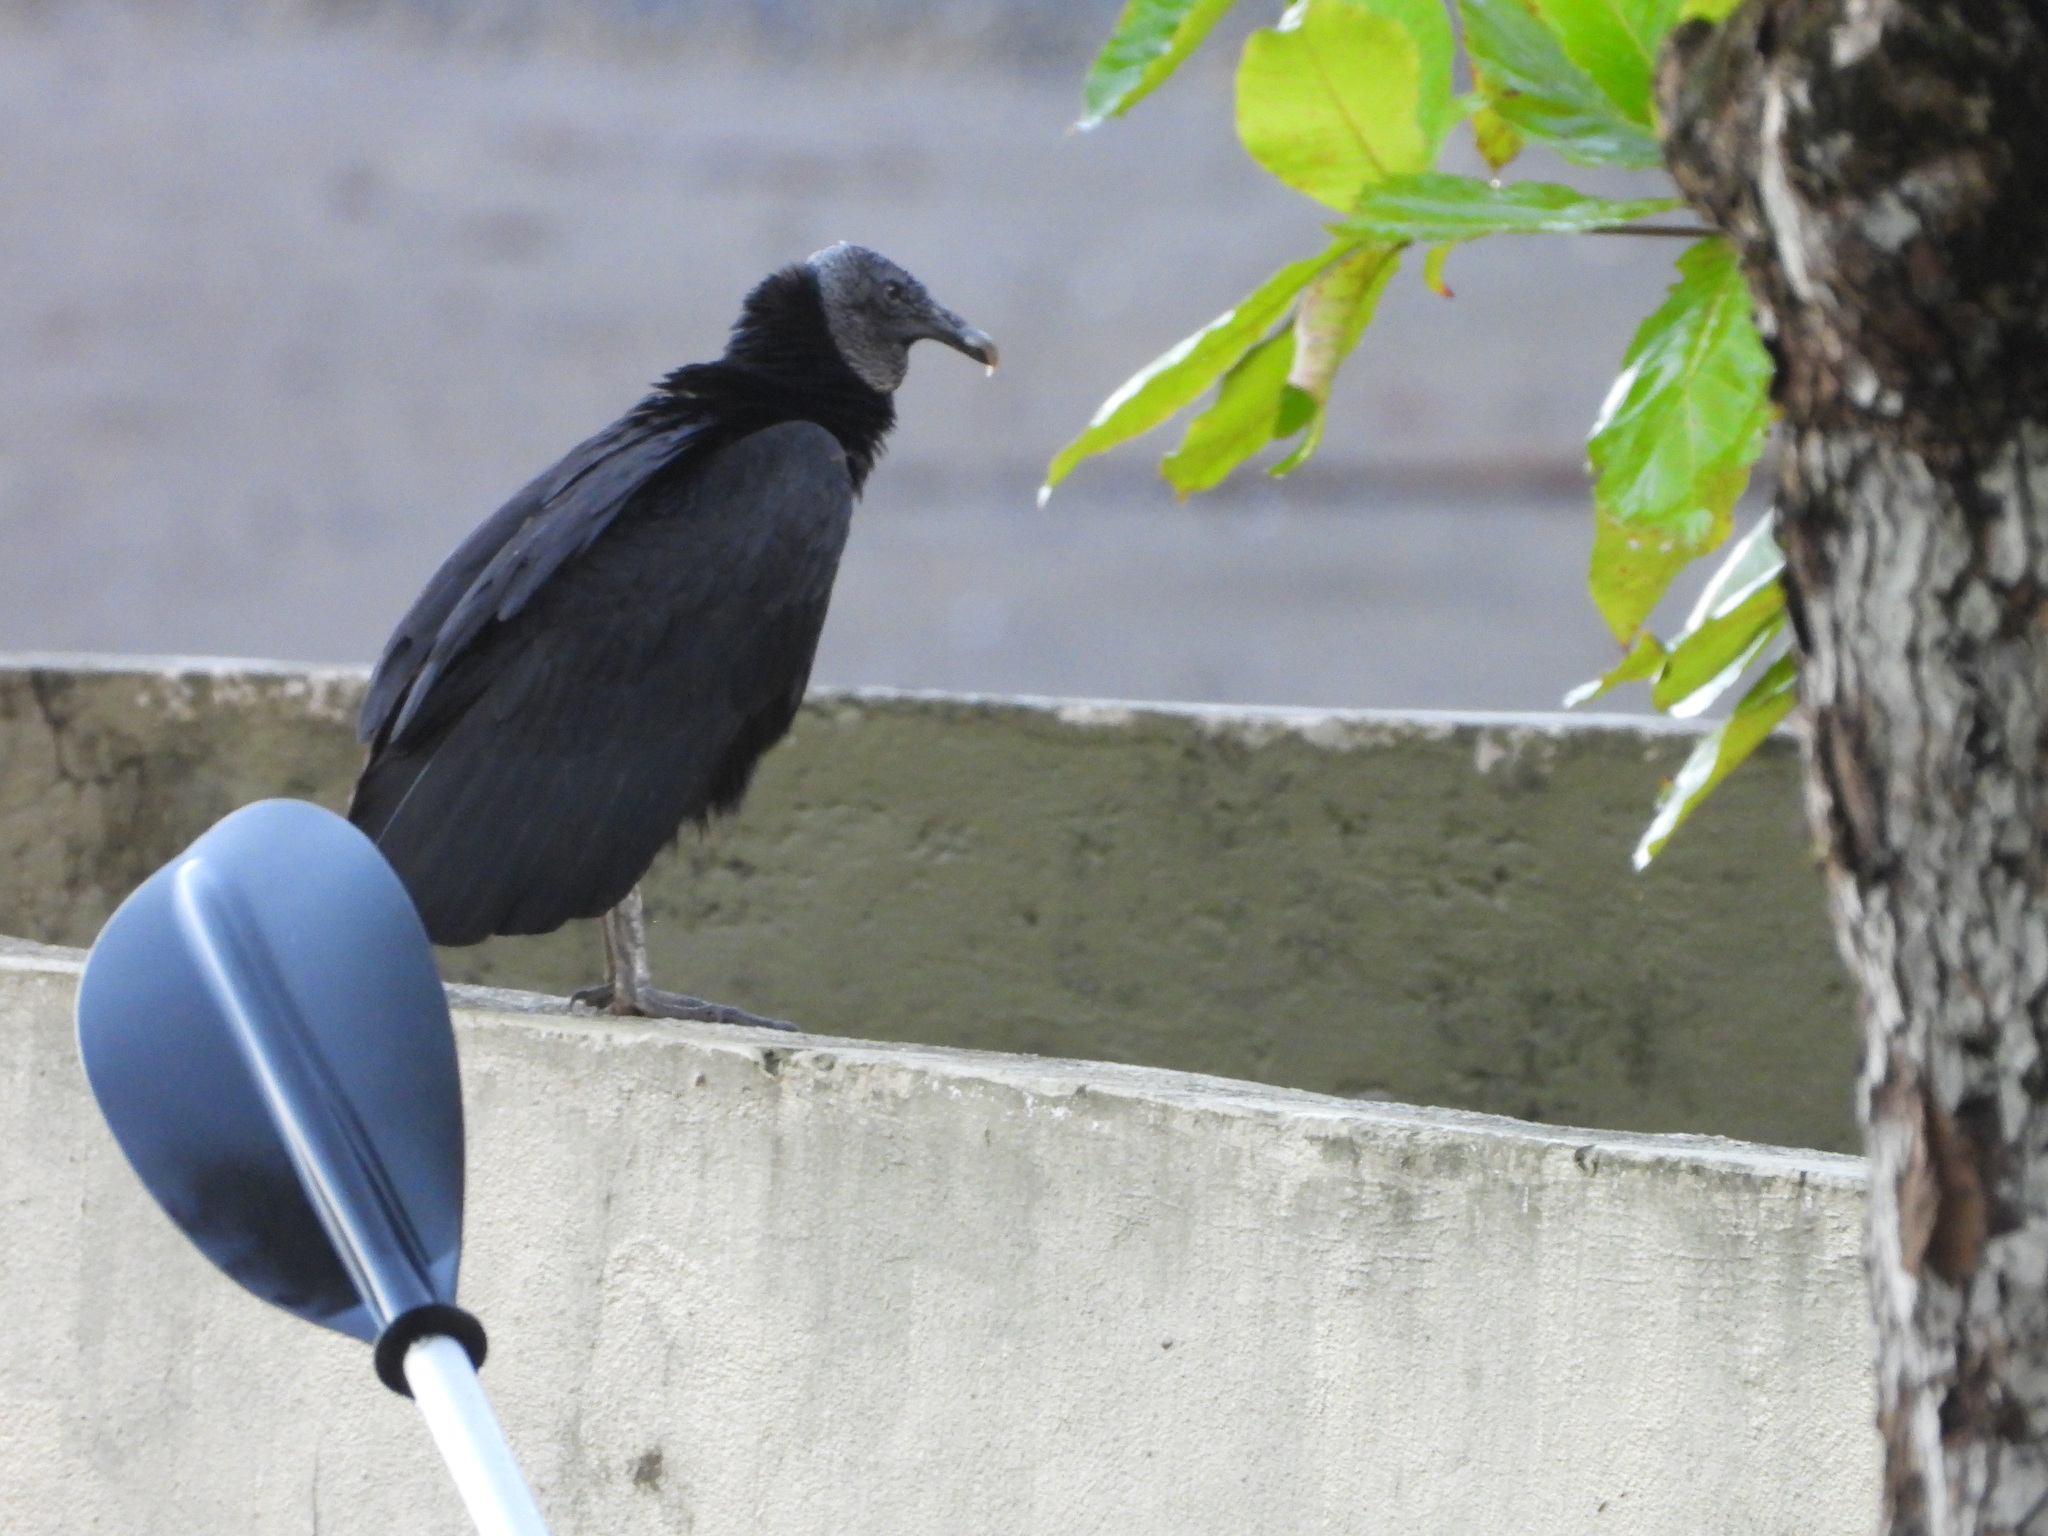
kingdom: Animalia
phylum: Chordata
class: Aves
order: Accipitriformes
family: Cathartidae
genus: Coragyps
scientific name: Coragyps atratus
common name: Black vulture
